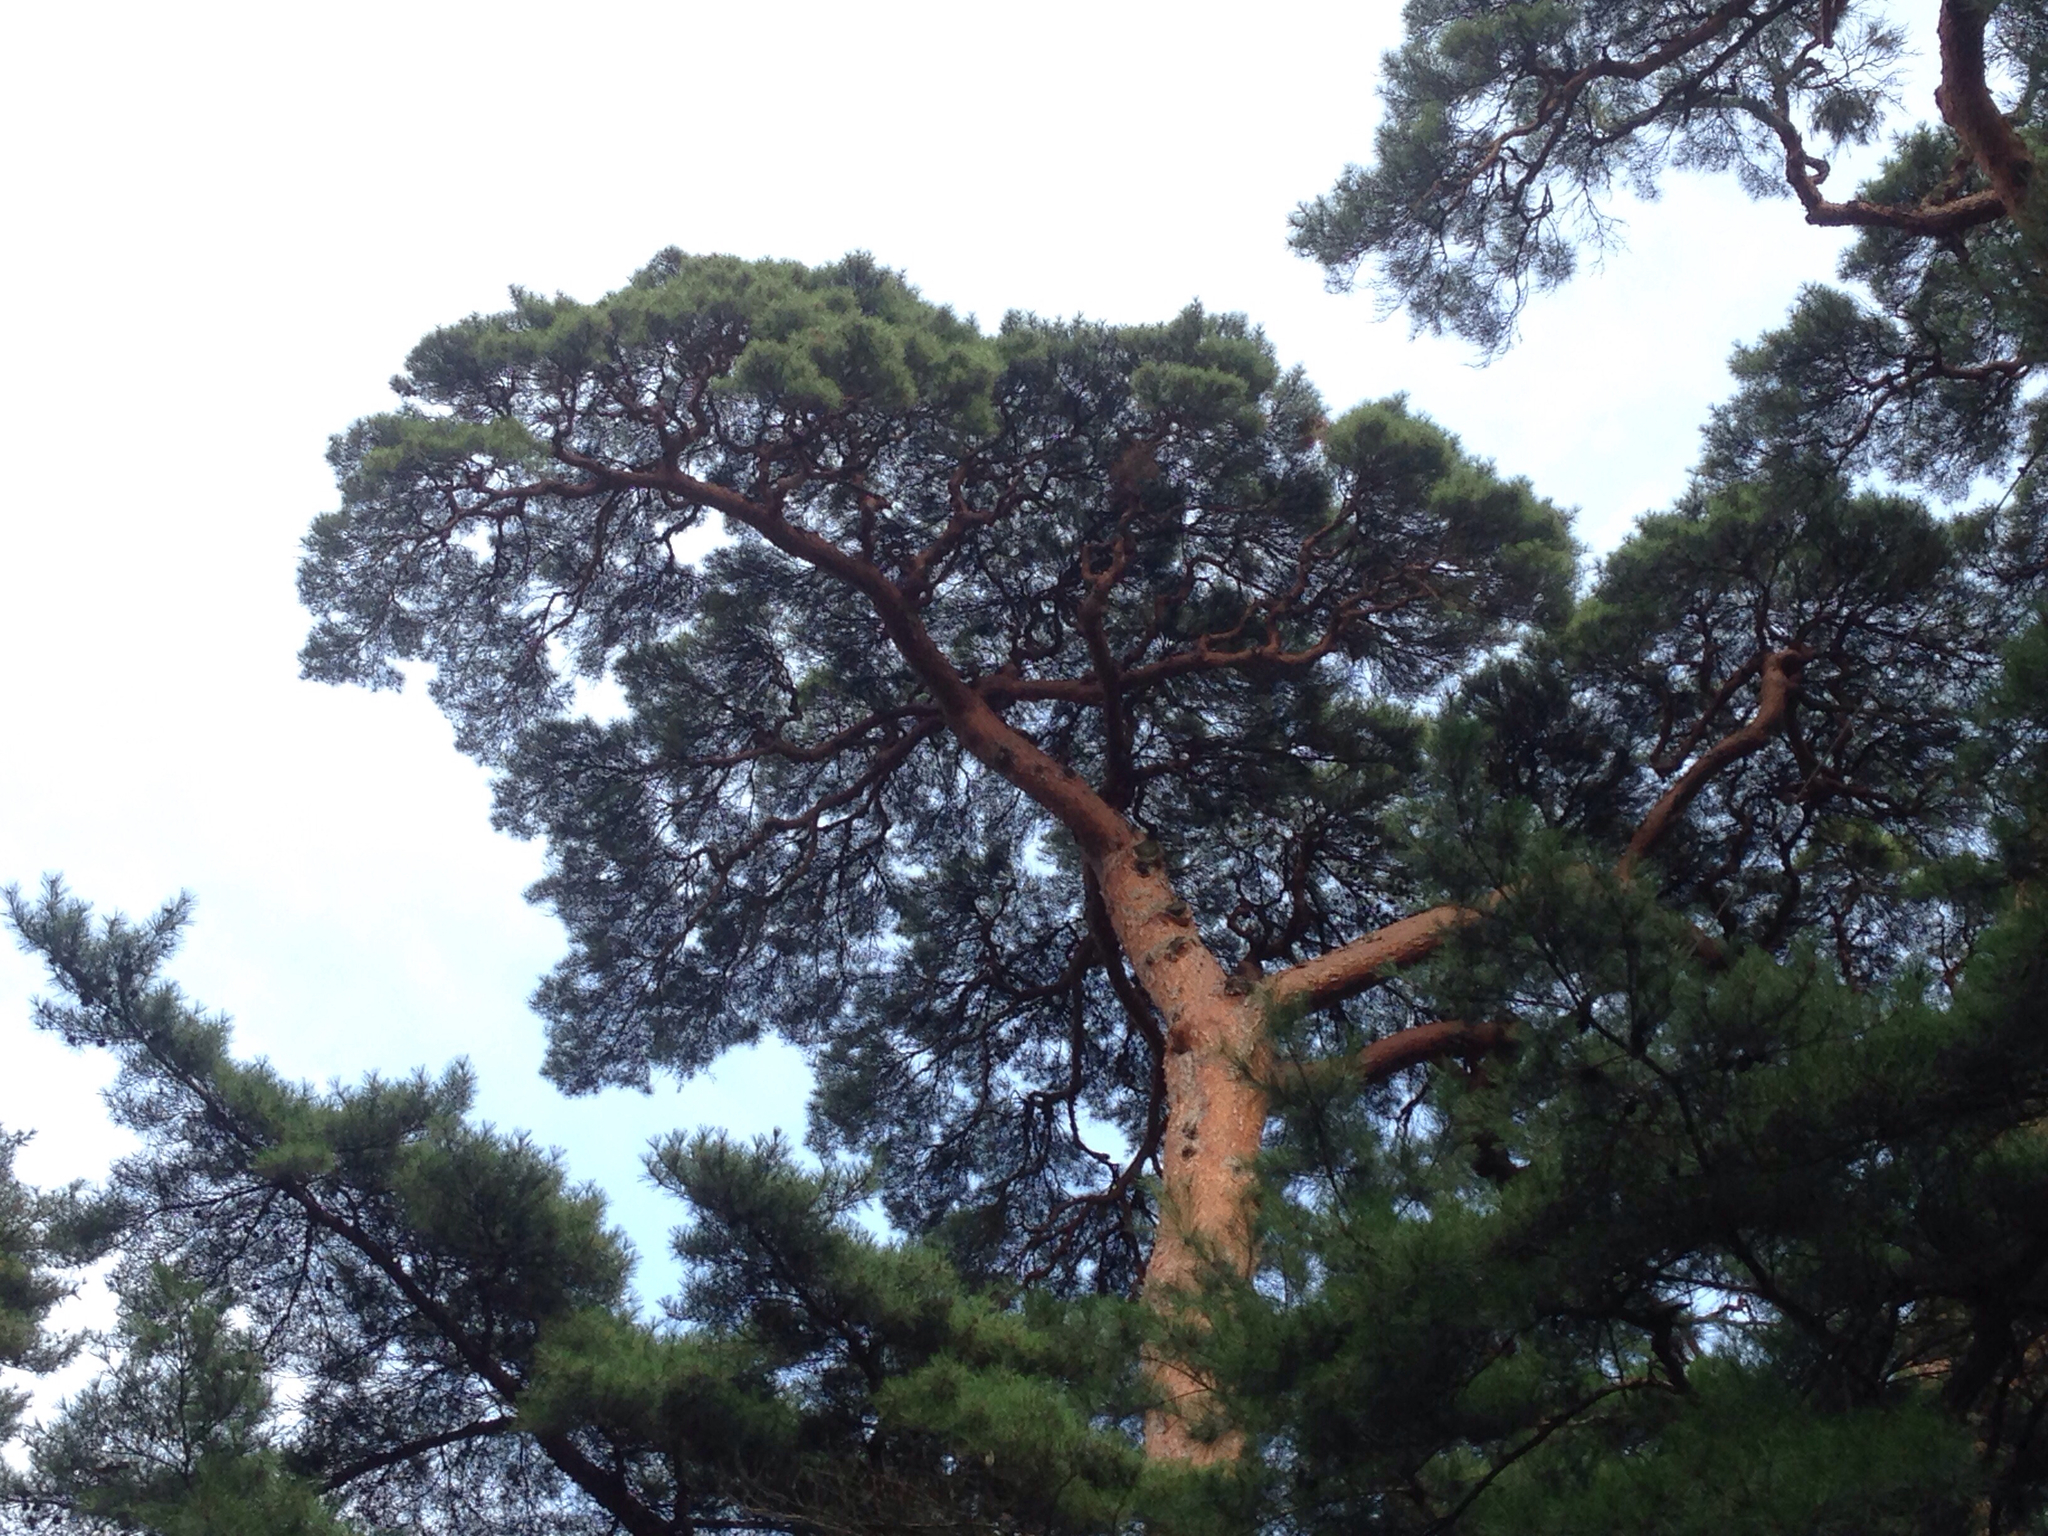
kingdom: Plantae
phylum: Tracheophyta
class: Pinopsida
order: Pinales
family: Pinaceae
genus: Pinus
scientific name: Pinus densiflora
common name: Japanese red pine
